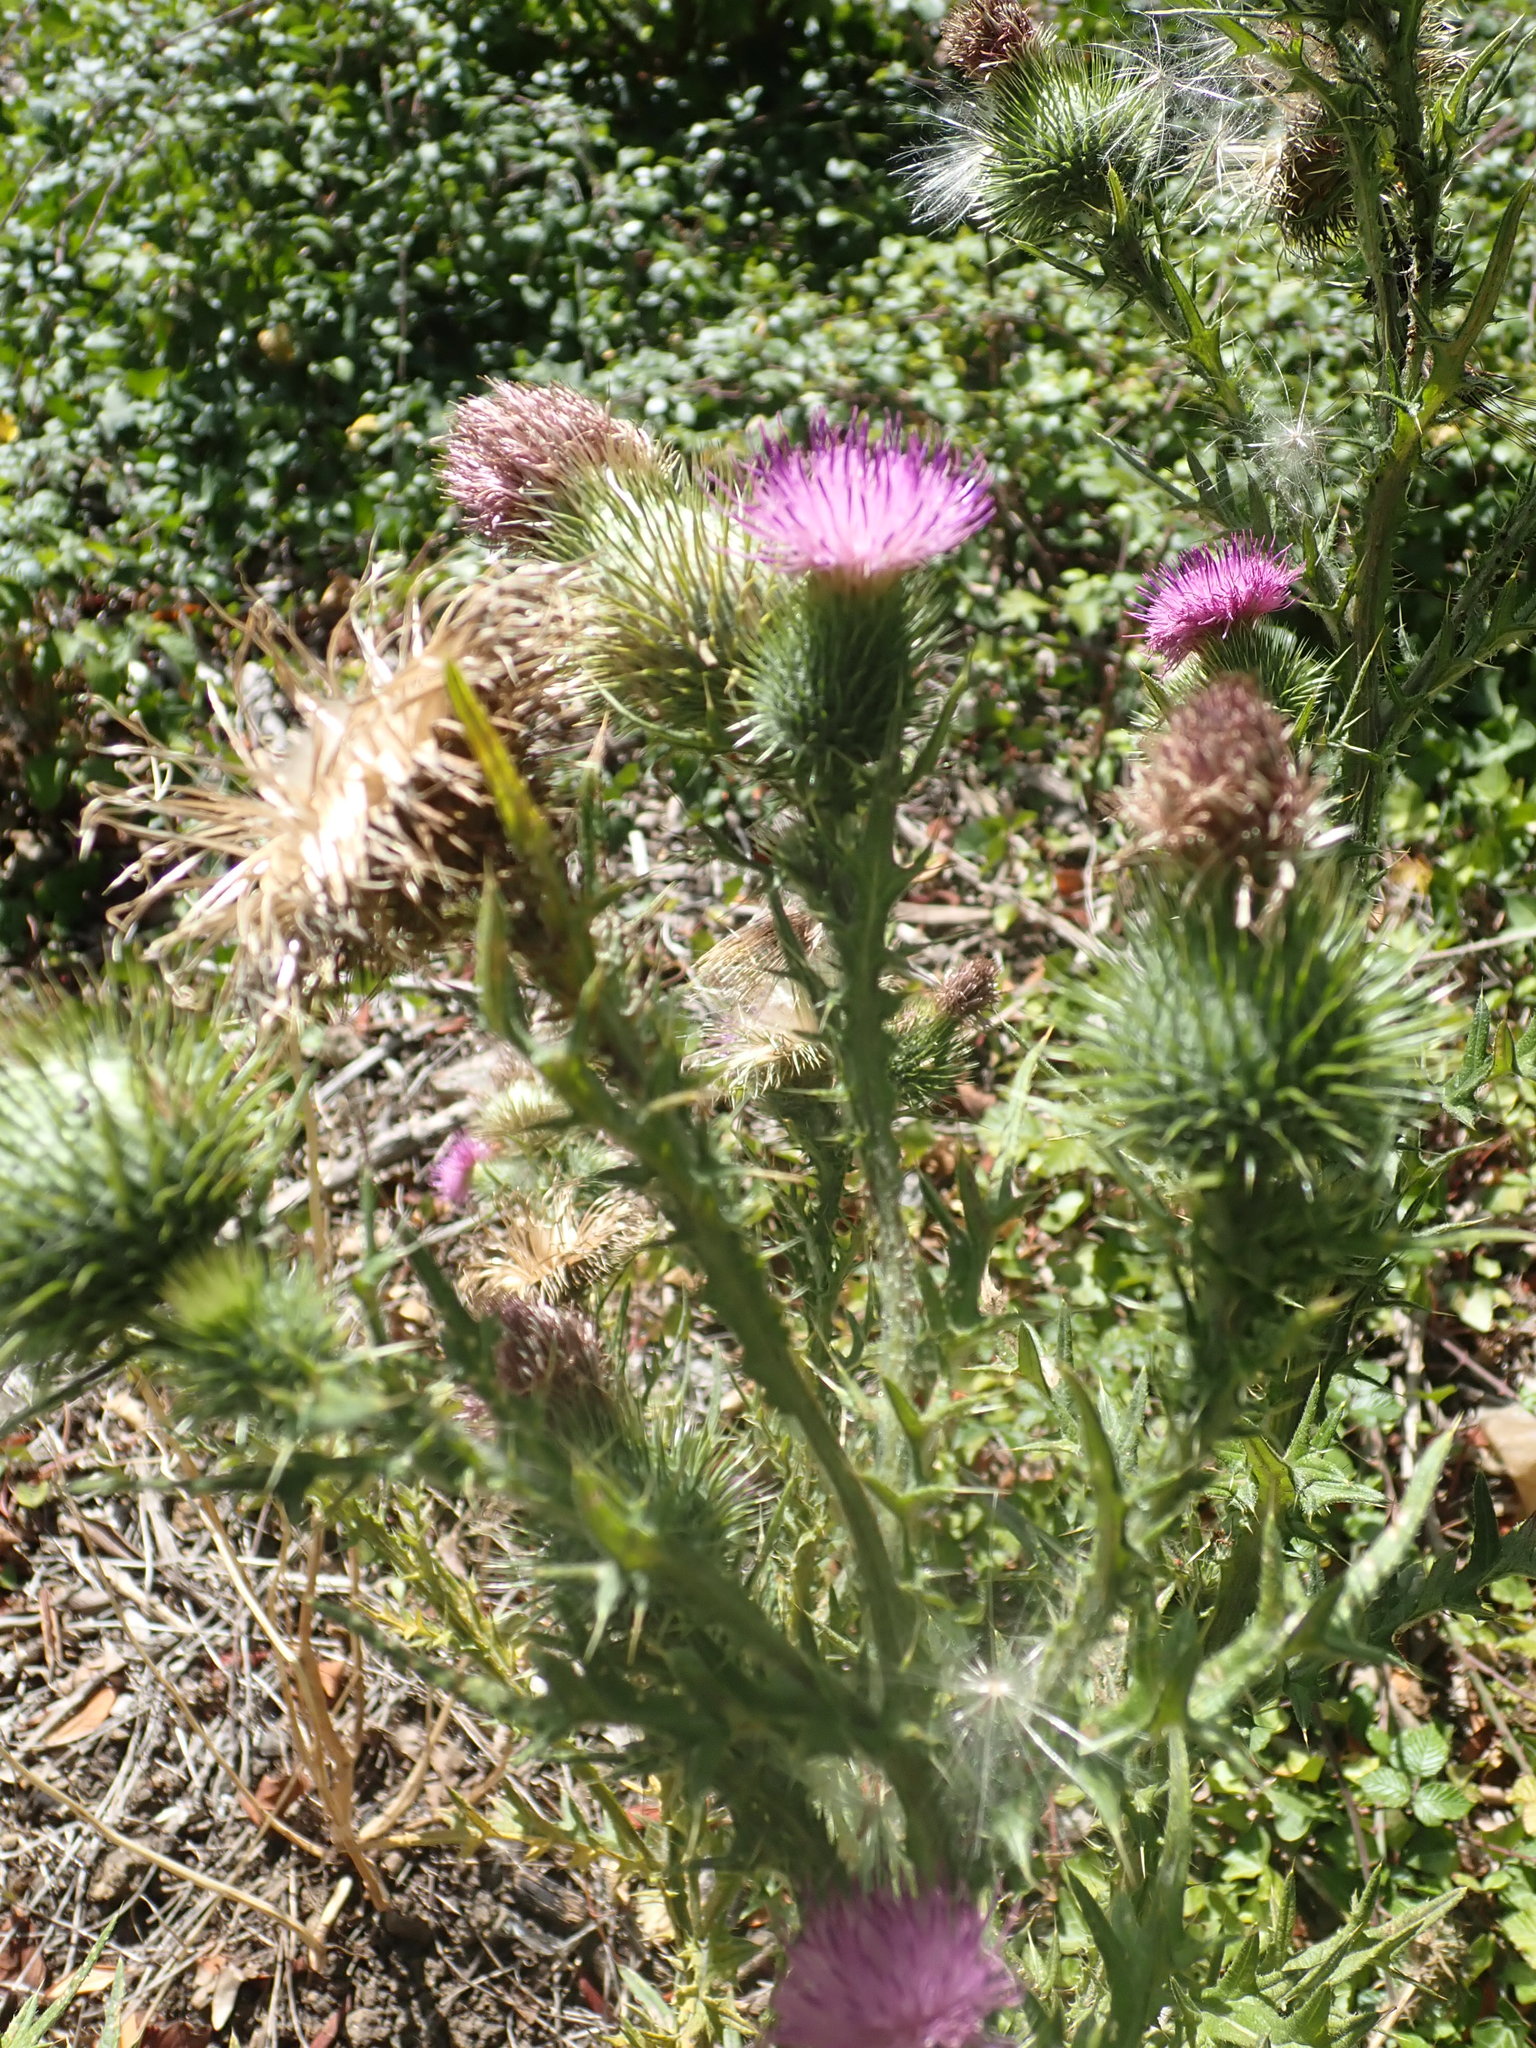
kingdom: Plantae
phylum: Tracheophyta
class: Magnoliopsida
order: Asterales
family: Asteraceae
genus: Cirsium
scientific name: Cirsium vulgare
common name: Bull thistle
